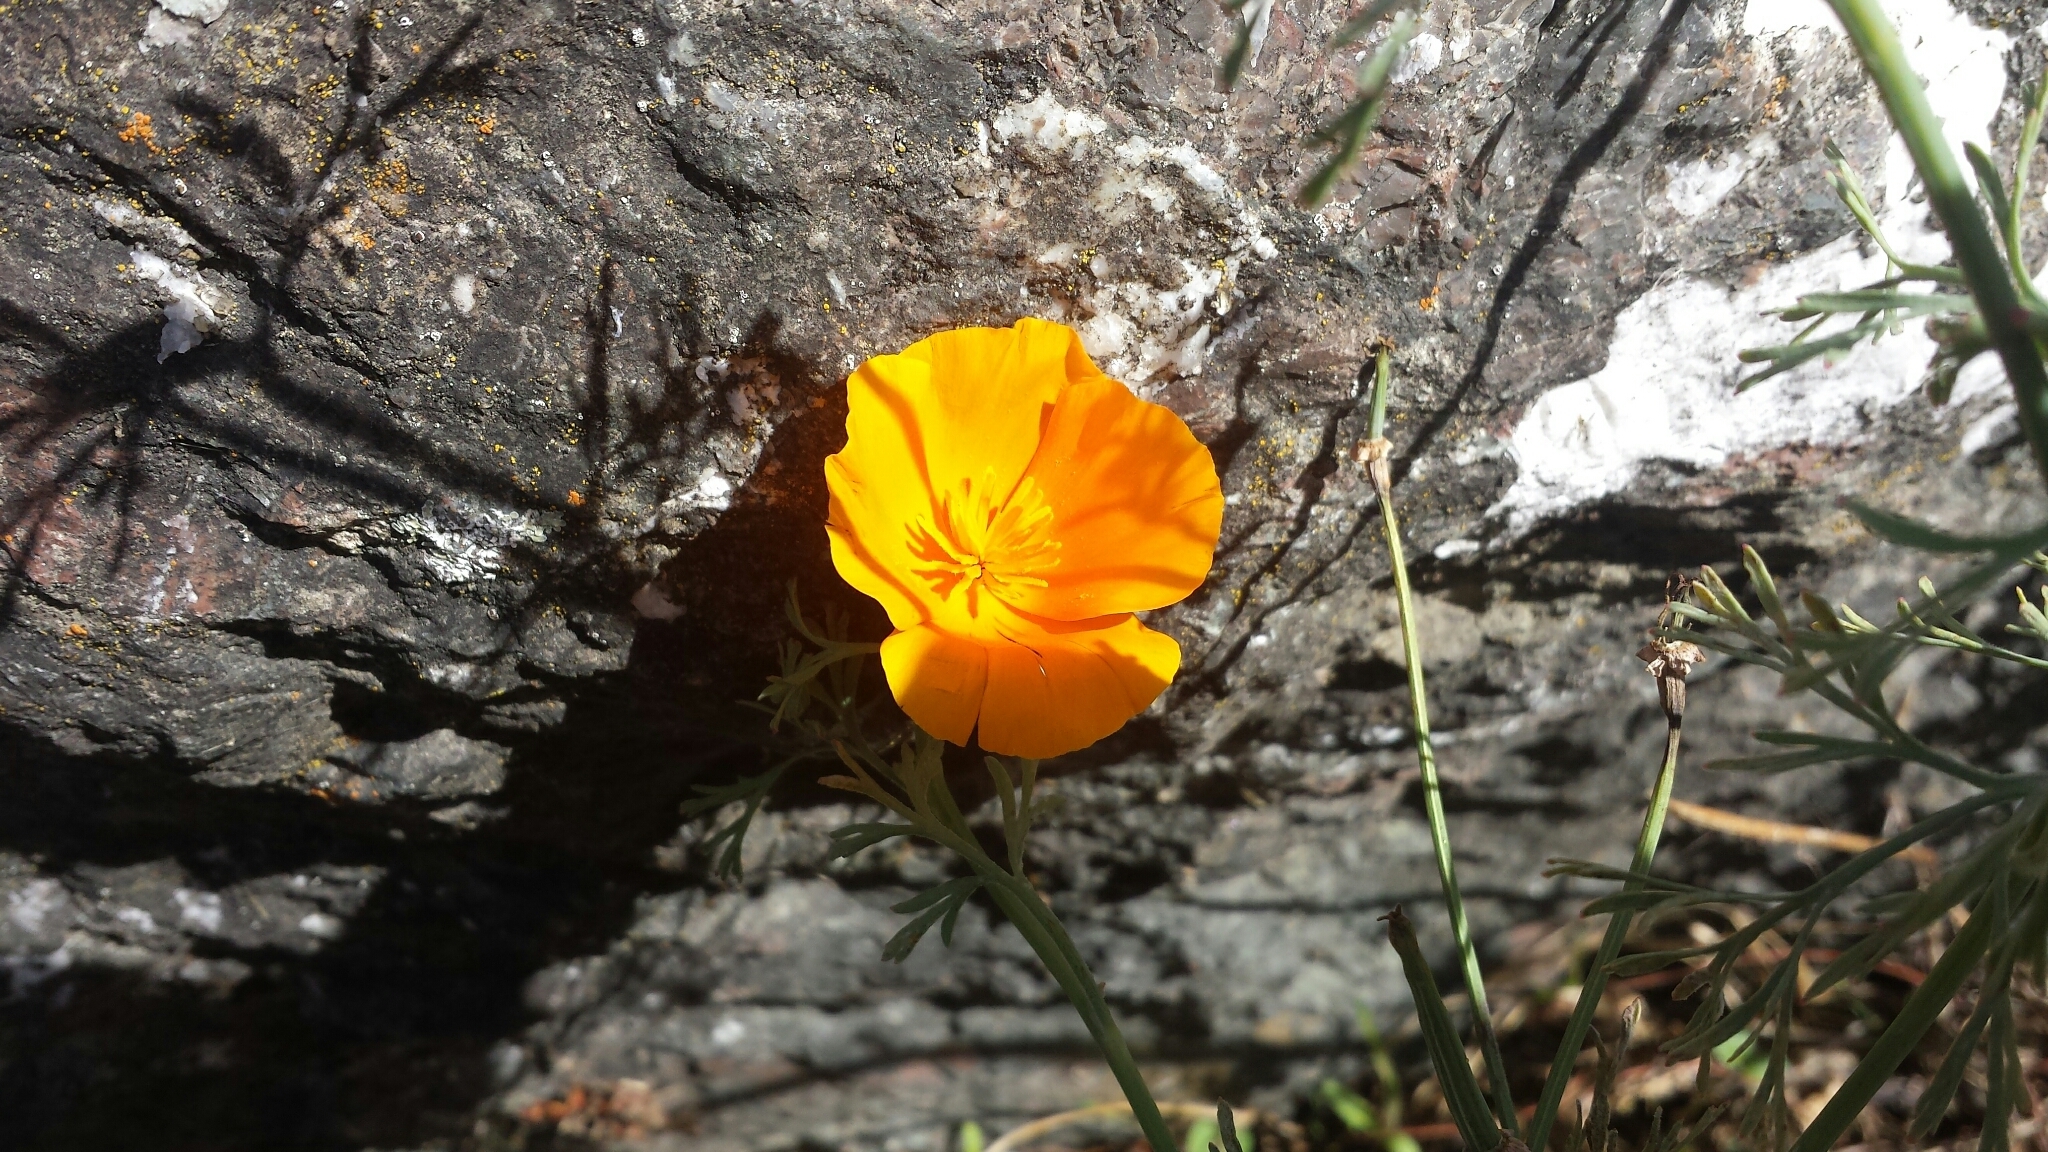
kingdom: Plantae
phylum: Tracheophyta
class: Magnoliopsida
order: Ranunculales
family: Papaveraceae
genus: Eschscholzia
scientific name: Eschscholzia californica
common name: California poppy
